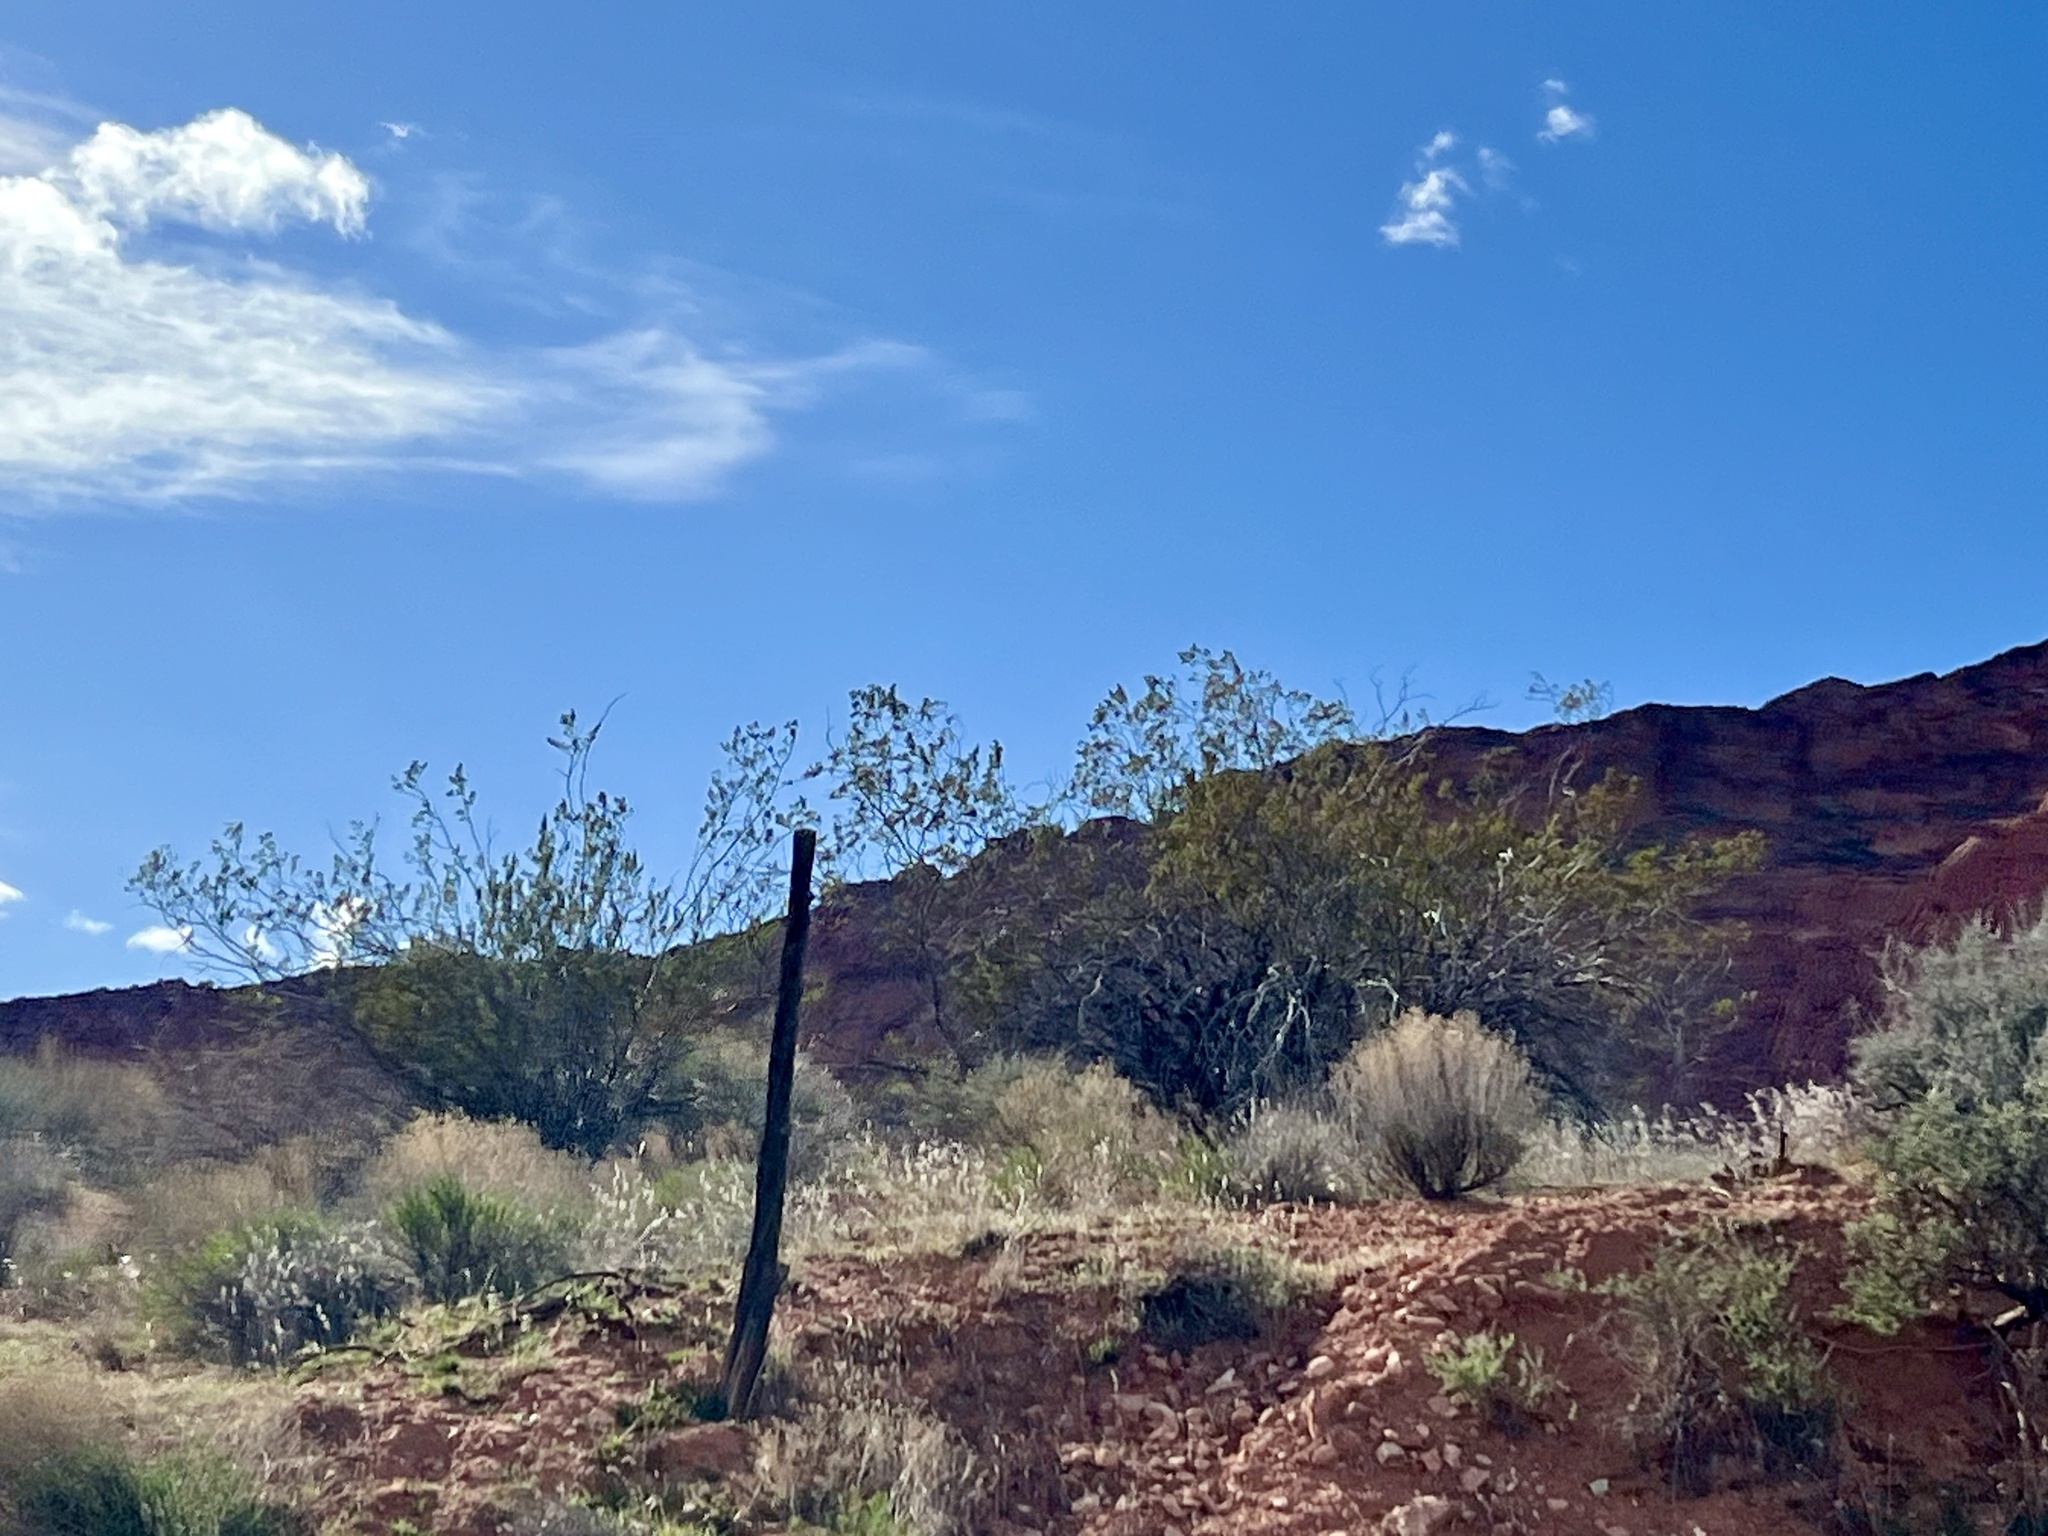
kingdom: Plantae
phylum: Tracheophyta
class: Magnoliopsida
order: Zygophyllales
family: Zygophyllaceae
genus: Larrea
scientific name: Larrea tridentata
